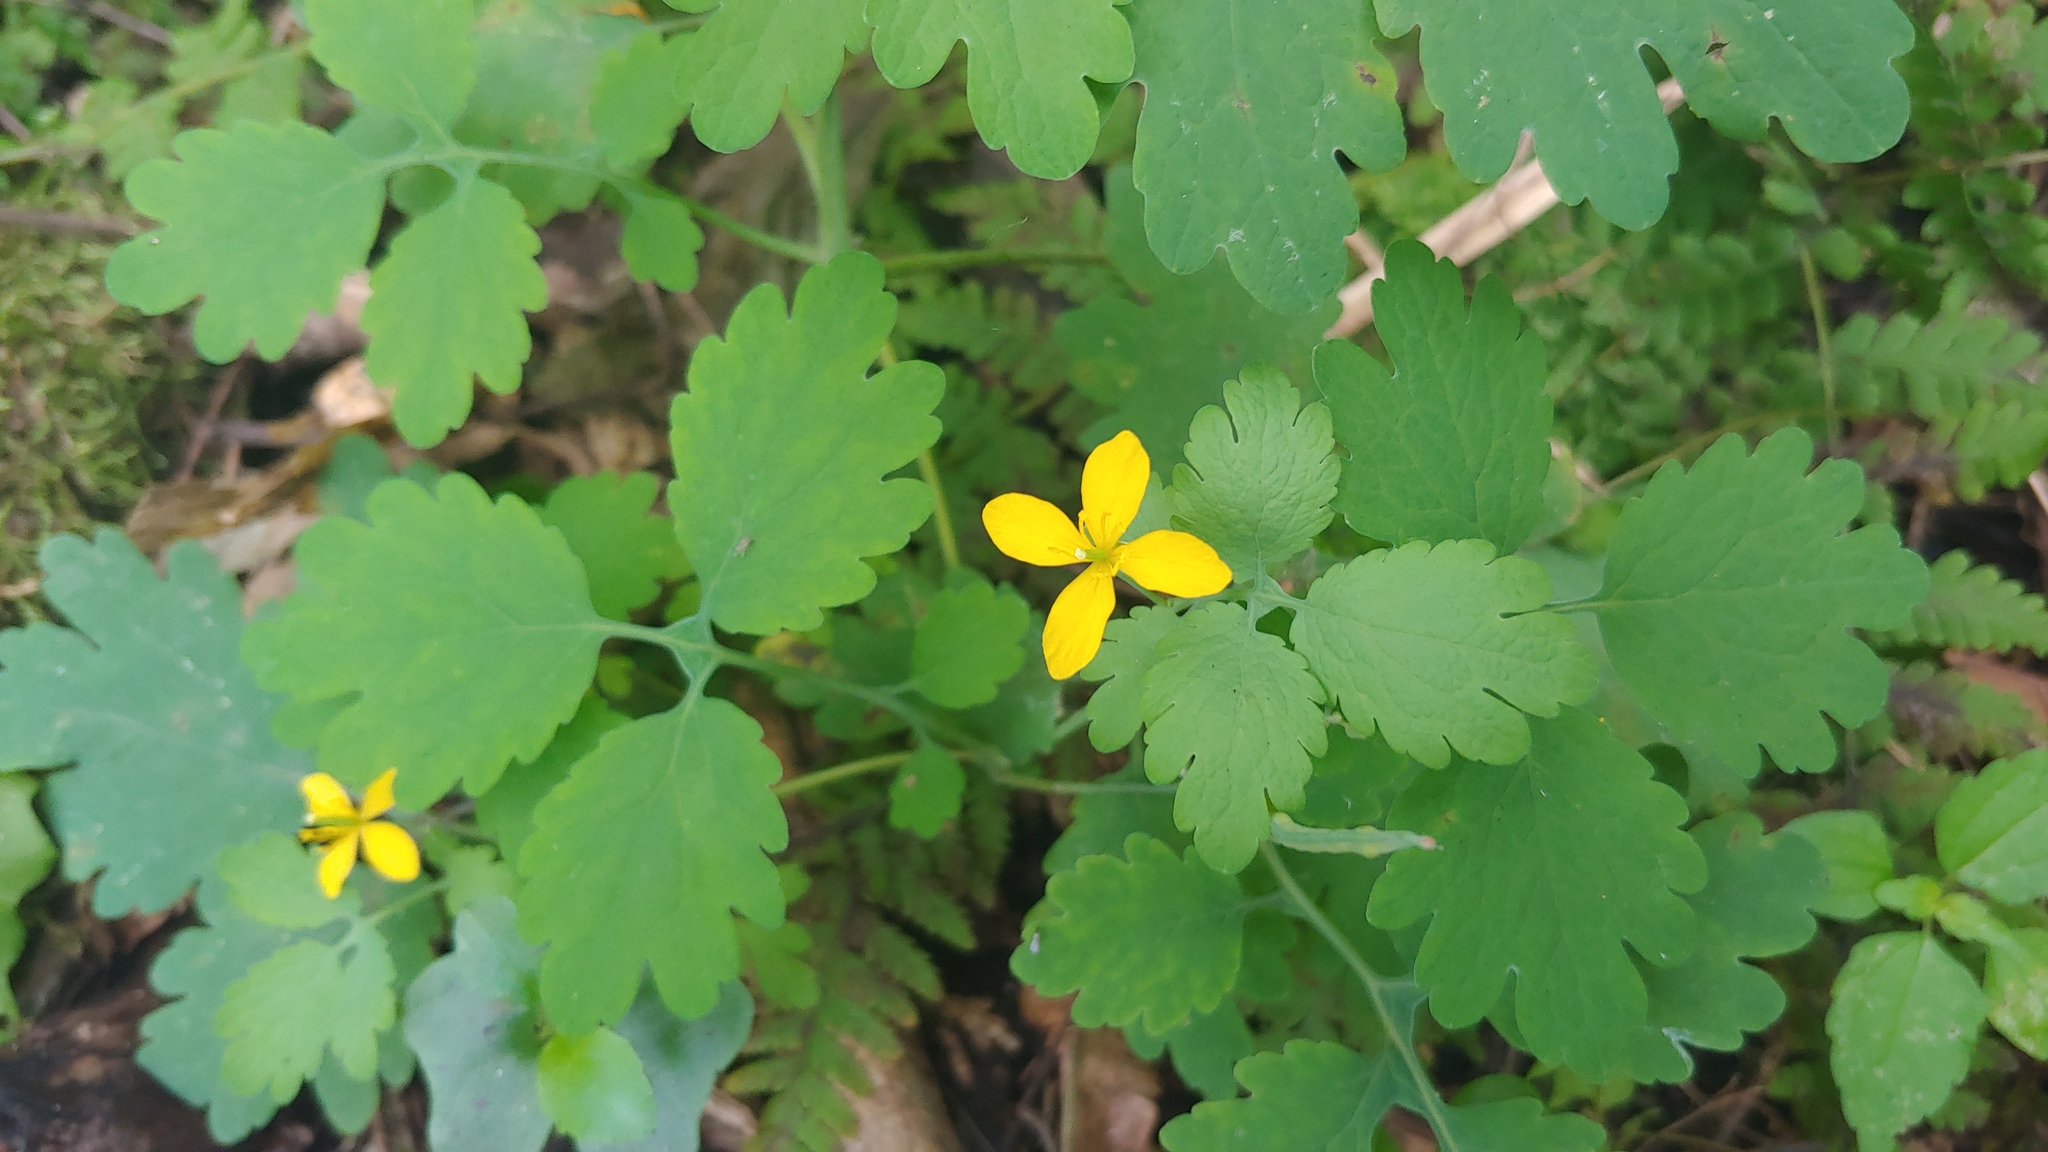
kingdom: Plantae
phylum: Tracheophyta
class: Magnoliopsida
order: Ranunculales
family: Papaveraceae
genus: Chelidonium
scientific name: Chelidonium majus
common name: Greater celandine
